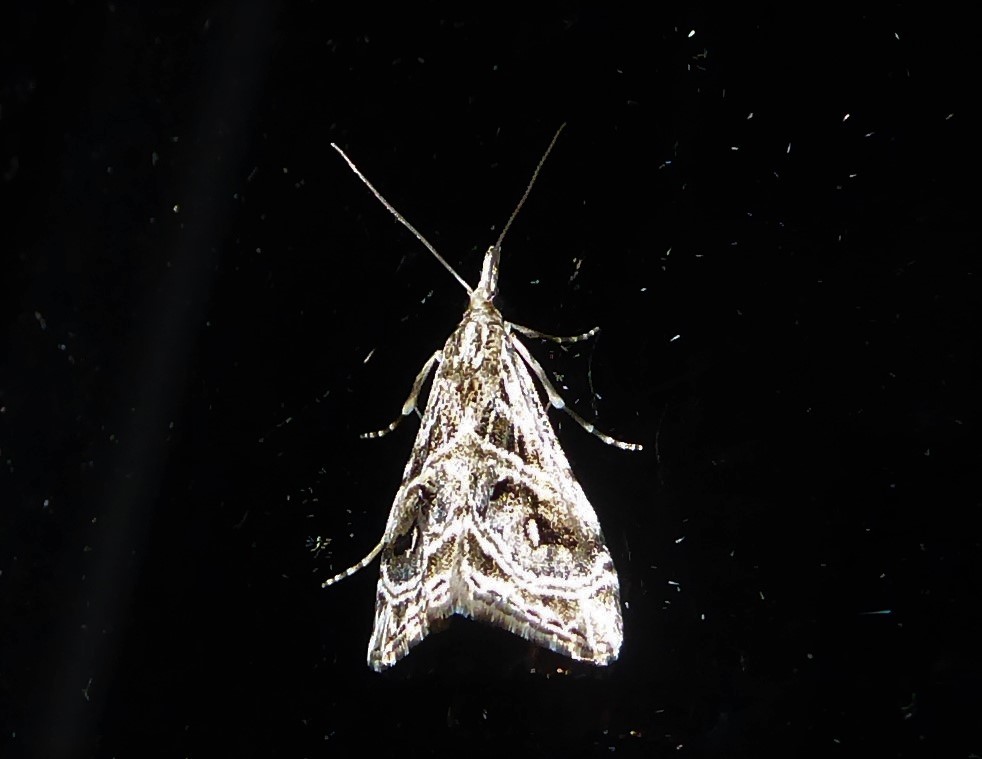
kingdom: Animalia
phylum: Arthropoda
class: Insecta
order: Lepidoptera
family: Crambidae
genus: Gadira
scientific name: Gadira acerella
